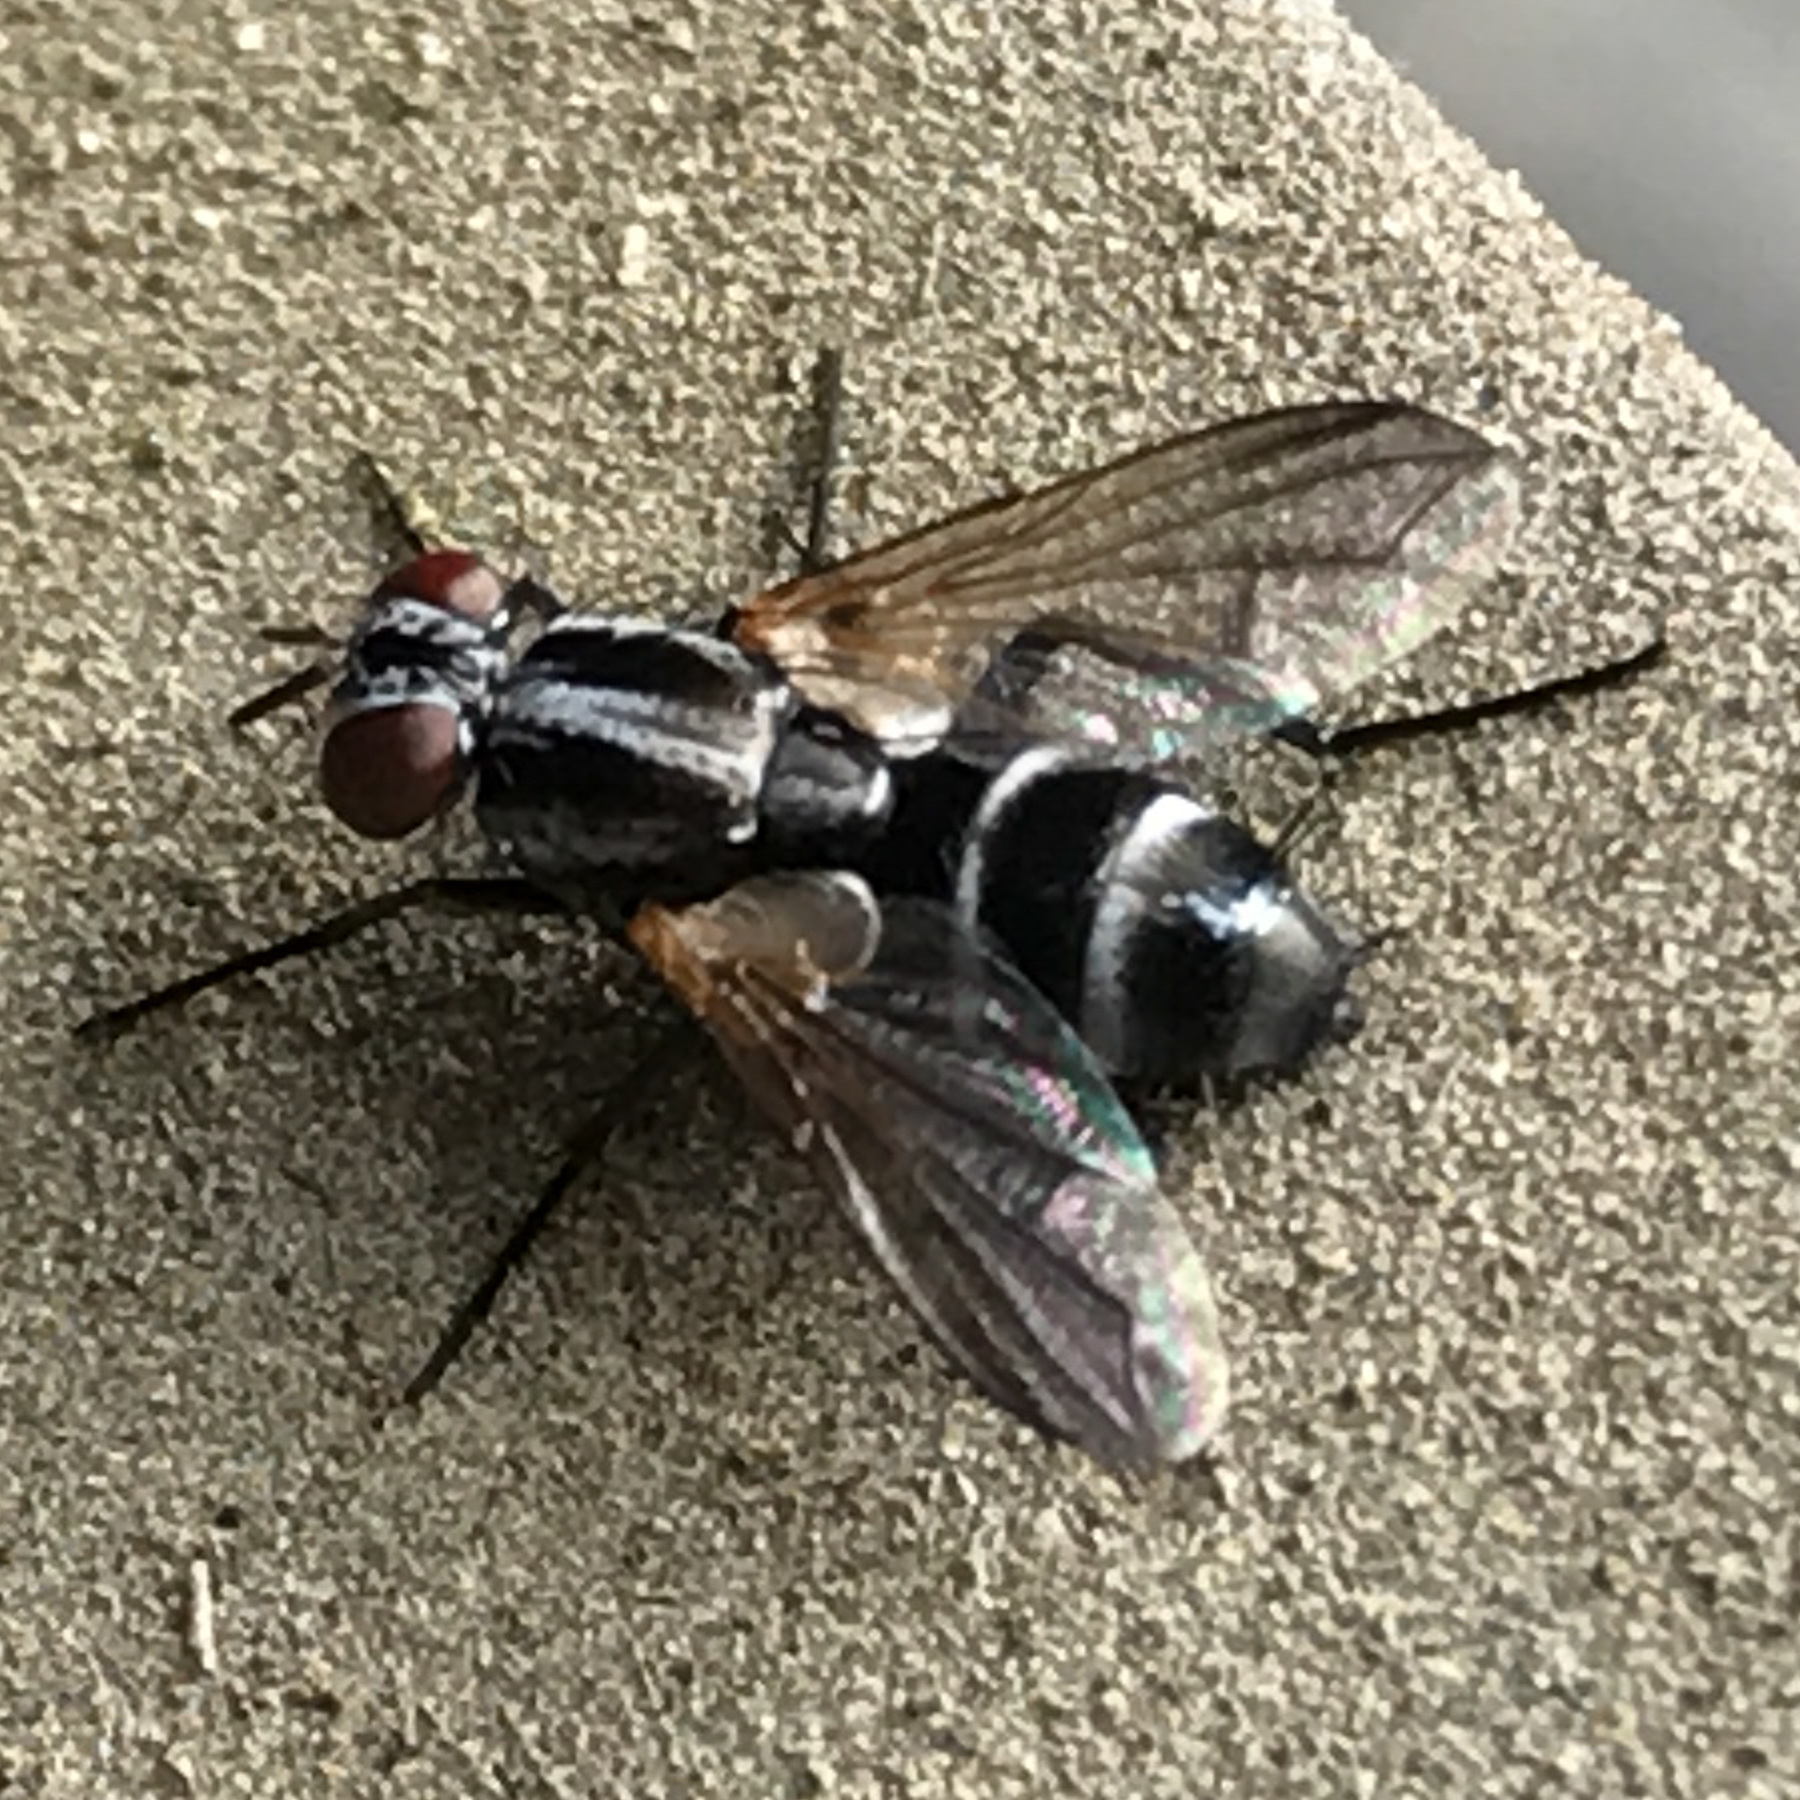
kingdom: Animalia
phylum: Arthropoda
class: Insecta
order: Diptera
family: Tachinidae
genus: Vanderwulpia
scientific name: Vanderwulpia sequens
